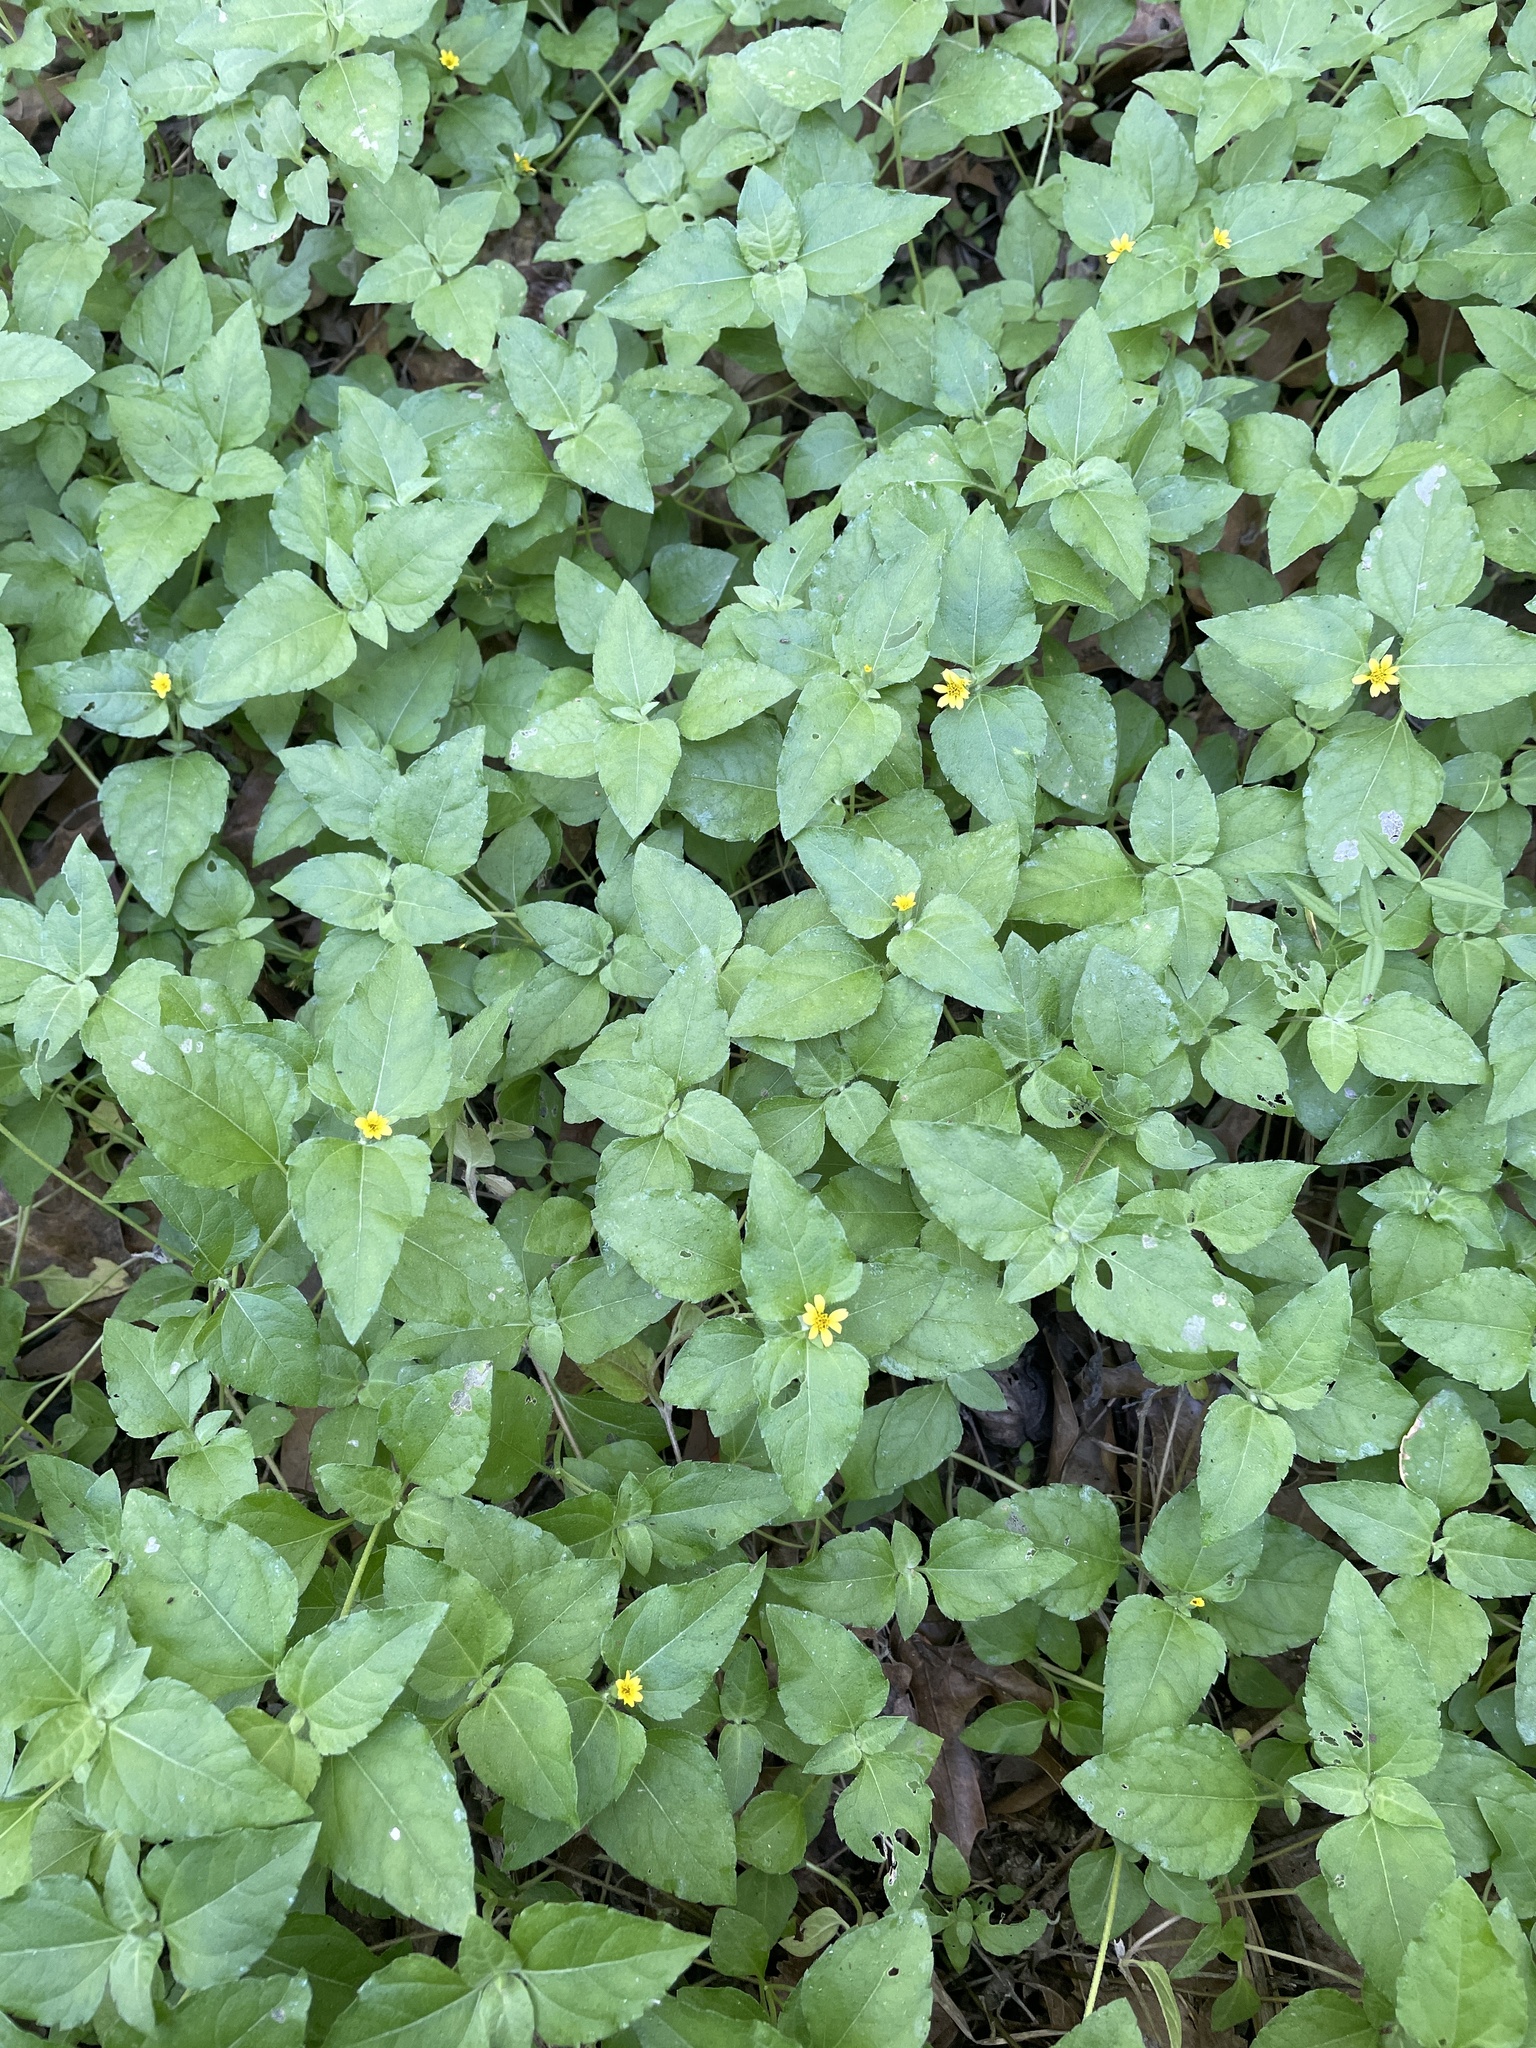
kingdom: Plantae
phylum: Tracheophyta
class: Magnoliopsida
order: Asterales
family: Asteraceae
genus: Calyptocarpus
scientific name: Calyptocarpus vialis
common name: Straggler daisy
